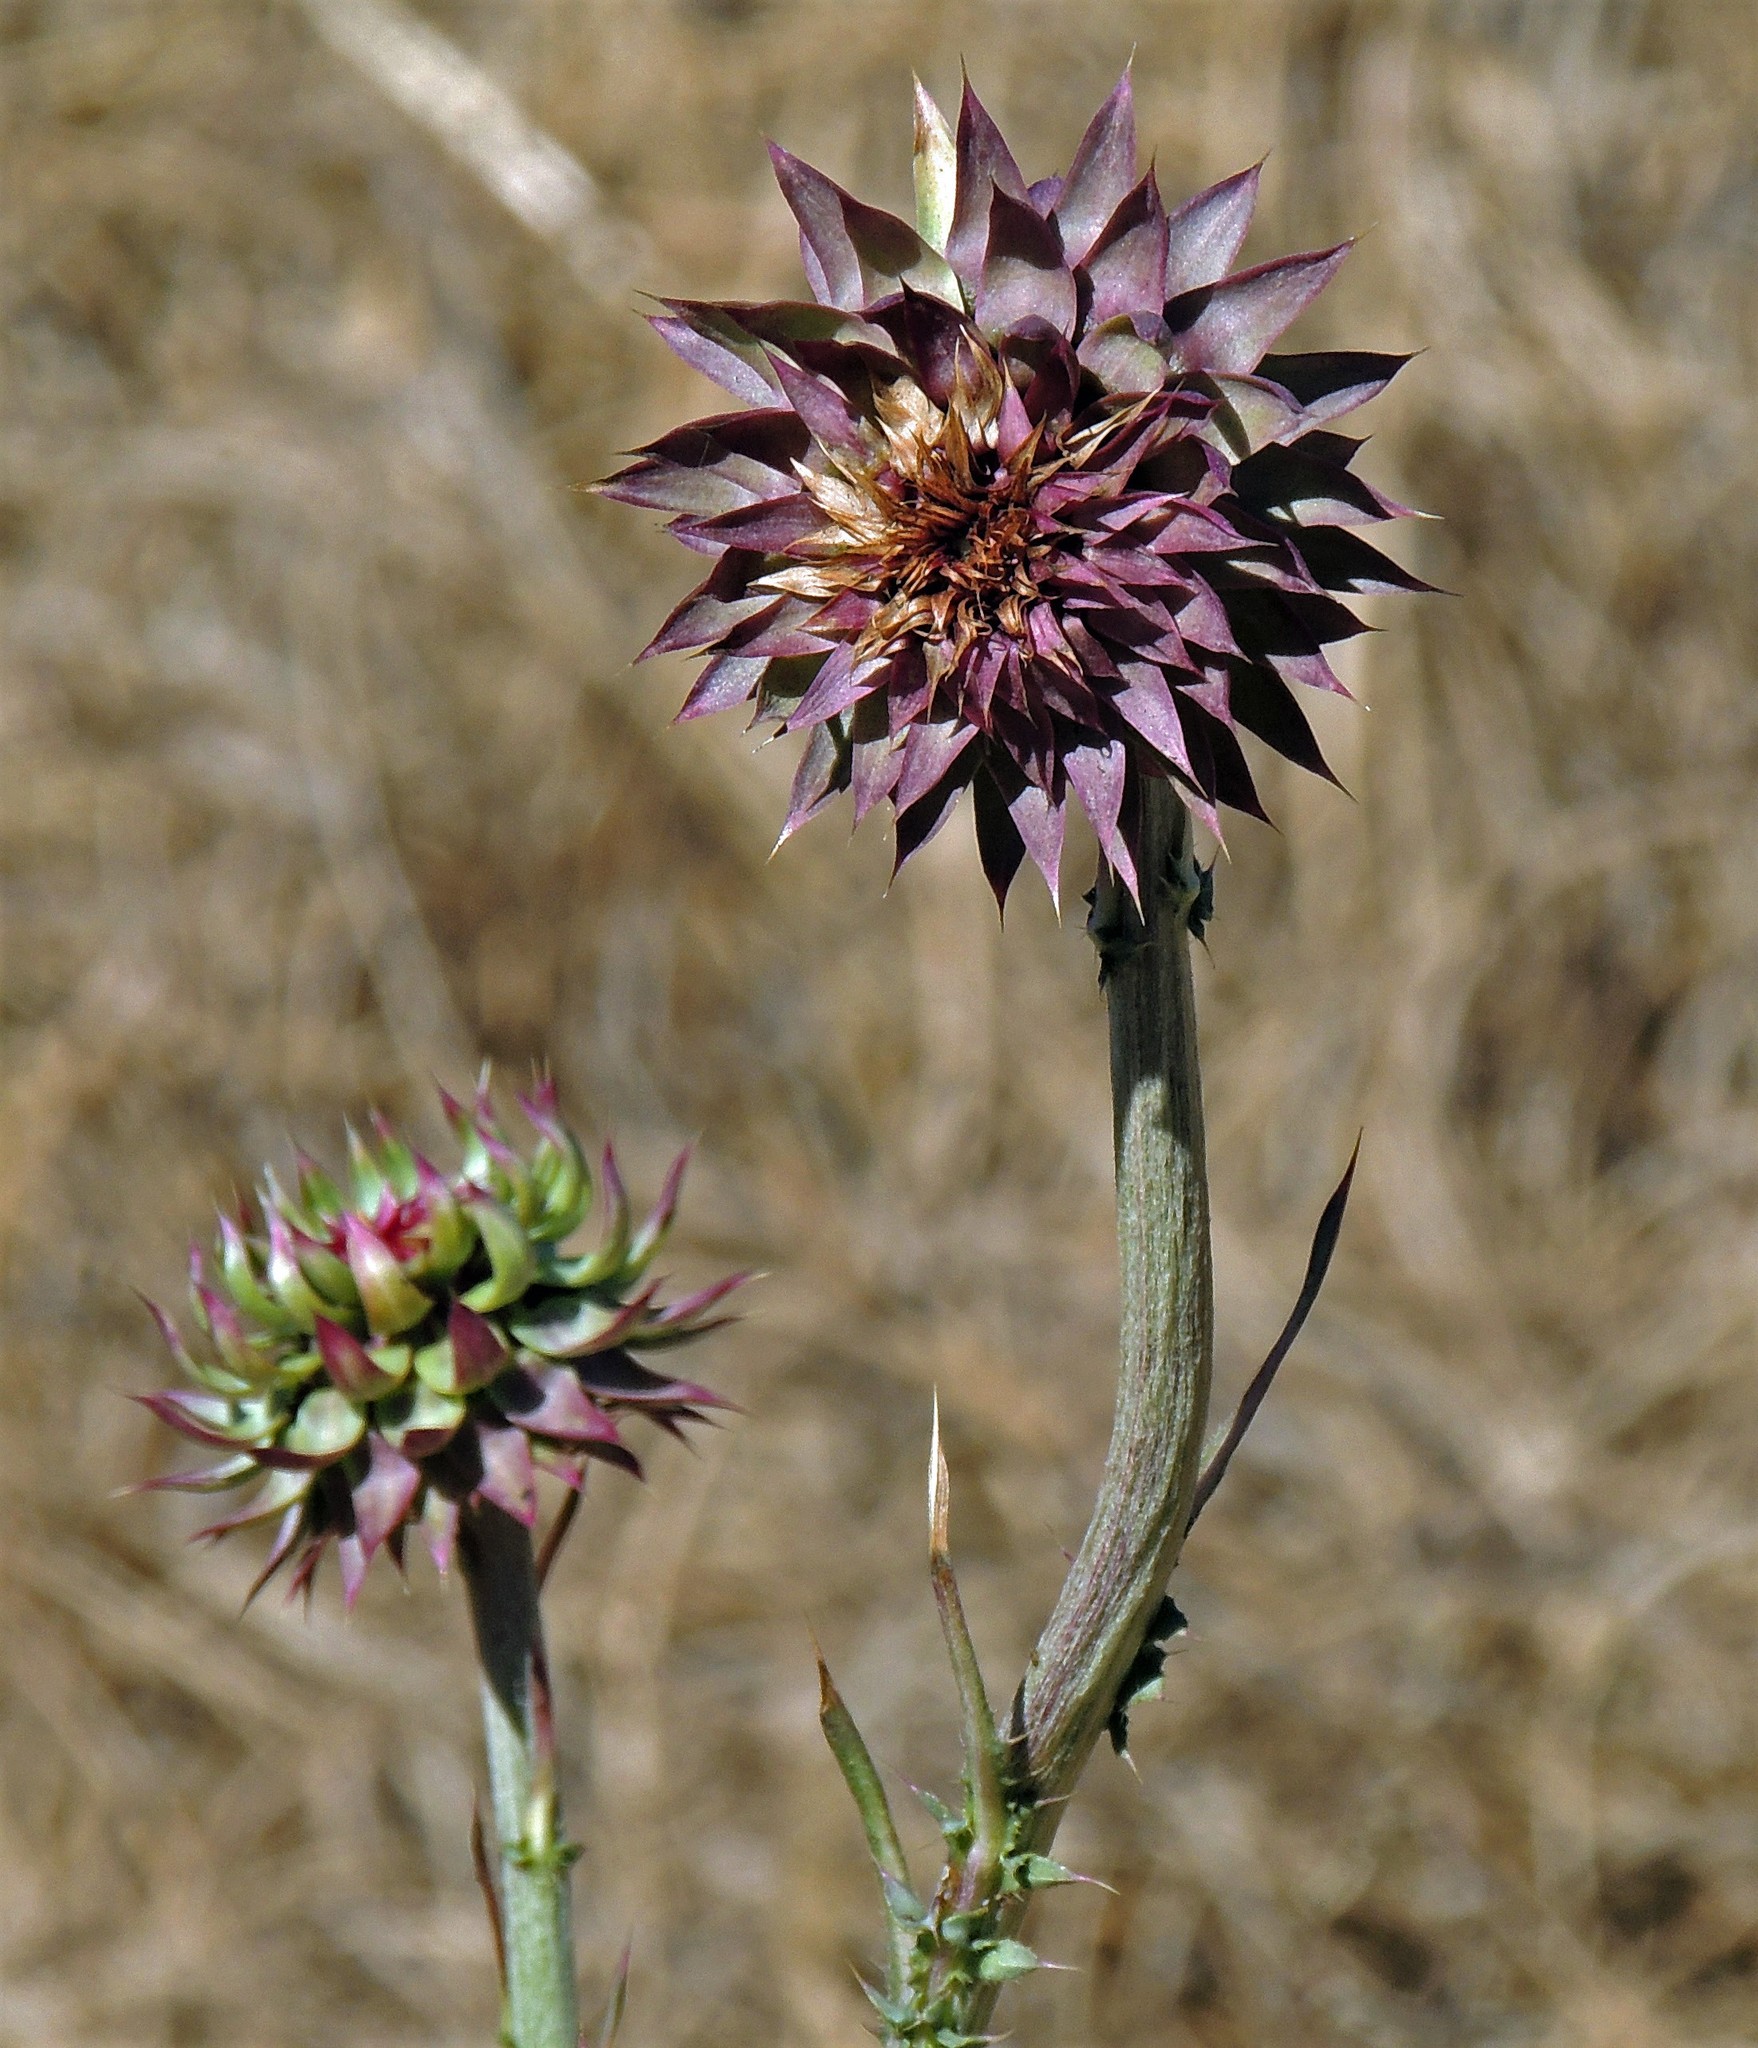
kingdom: Plantae
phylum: Tracheophyta
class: Magnoliopsida
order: Asterales
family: Asteraceae
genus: Carduus
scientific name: Carduus nutans
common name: Musk thistle
